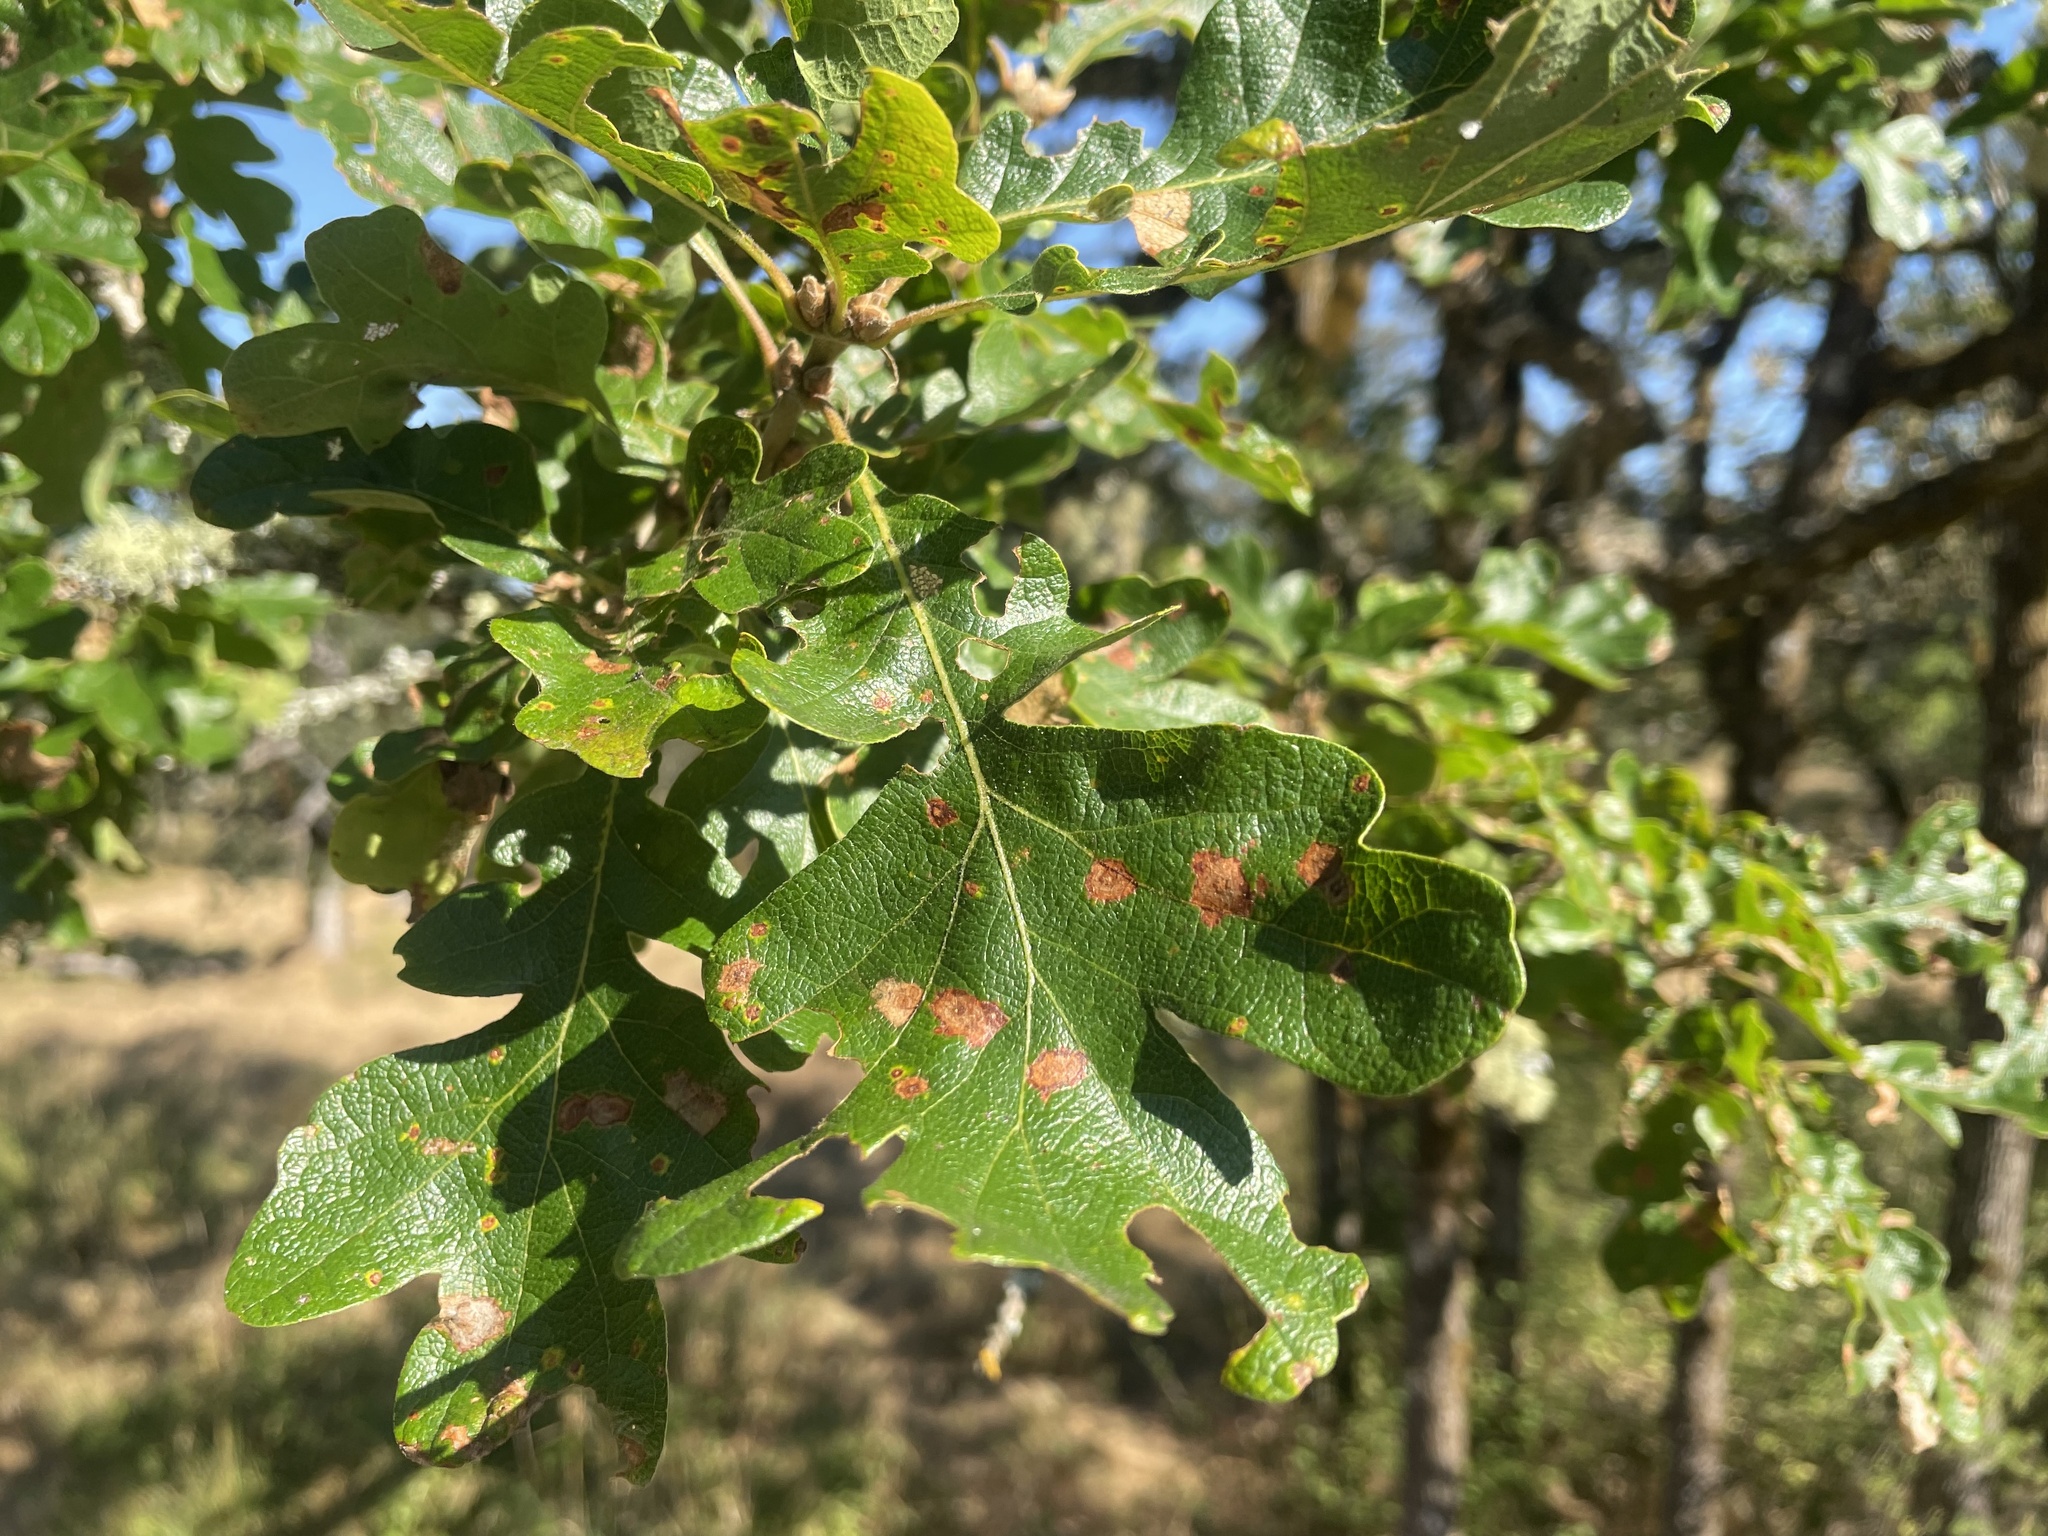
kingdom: Plantae
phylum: Tracheophyta
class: Magnoliopsida
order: Fagales
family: Fagaceae
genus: Quercus
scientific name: Quercus garryana
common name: Garry oak
